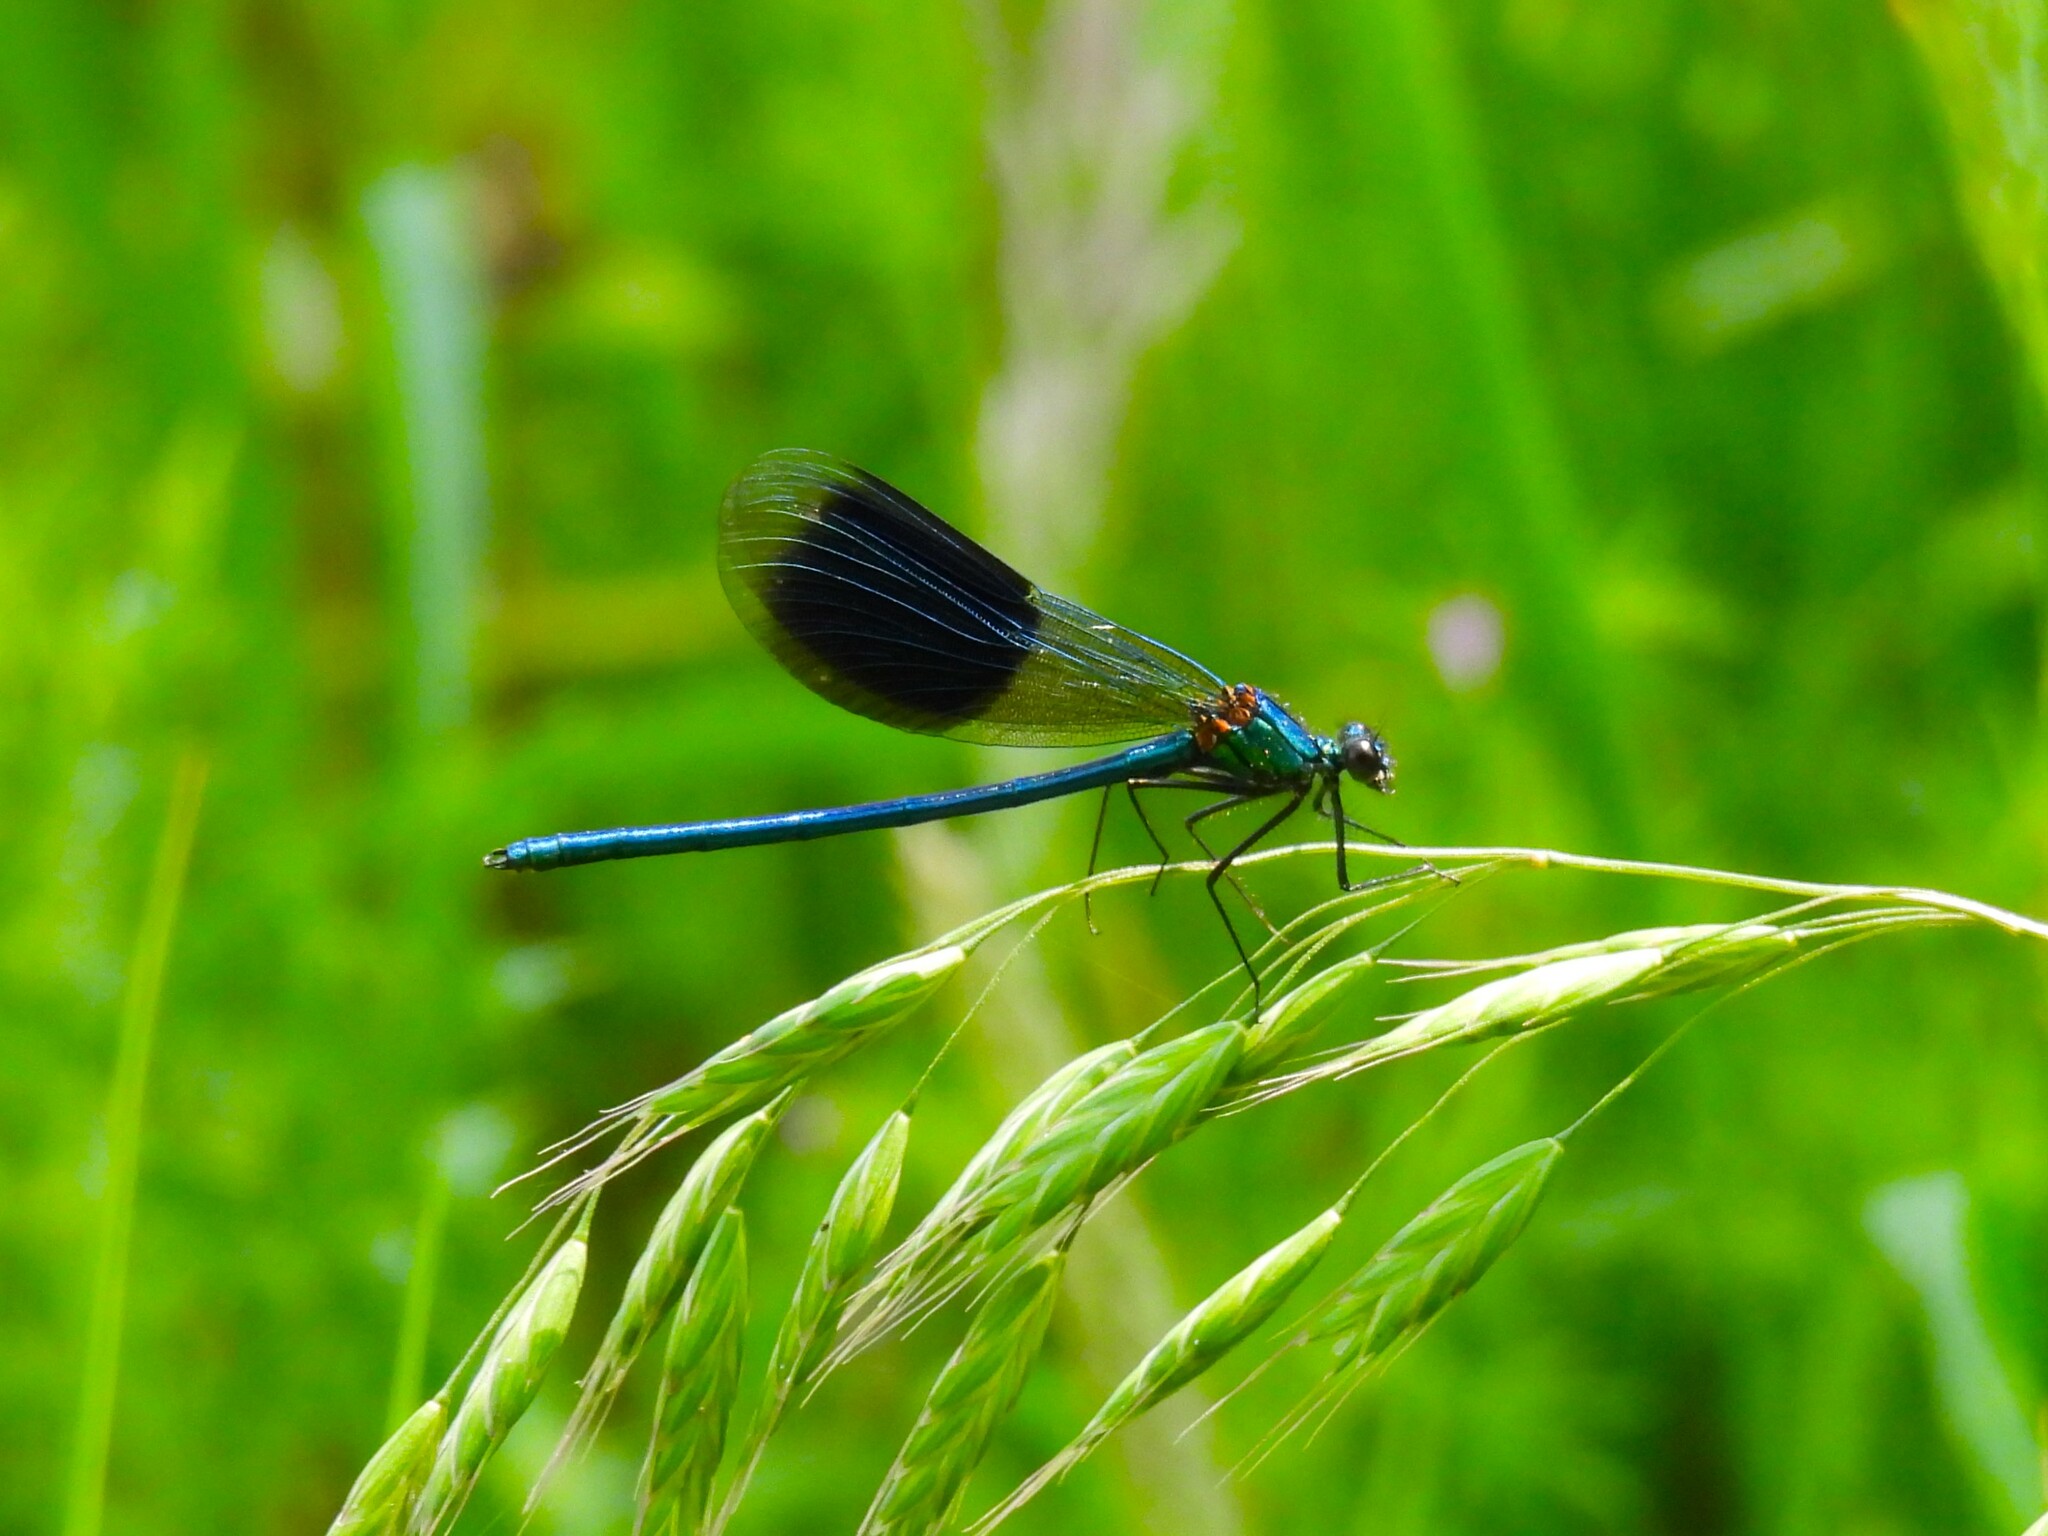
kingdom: Animalia
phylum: Arthropoda
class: Insecta
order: Odonata
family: Calopterygidae
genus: Calopteryx
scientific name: Calopteryx splendens
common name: Banded demoiselle
